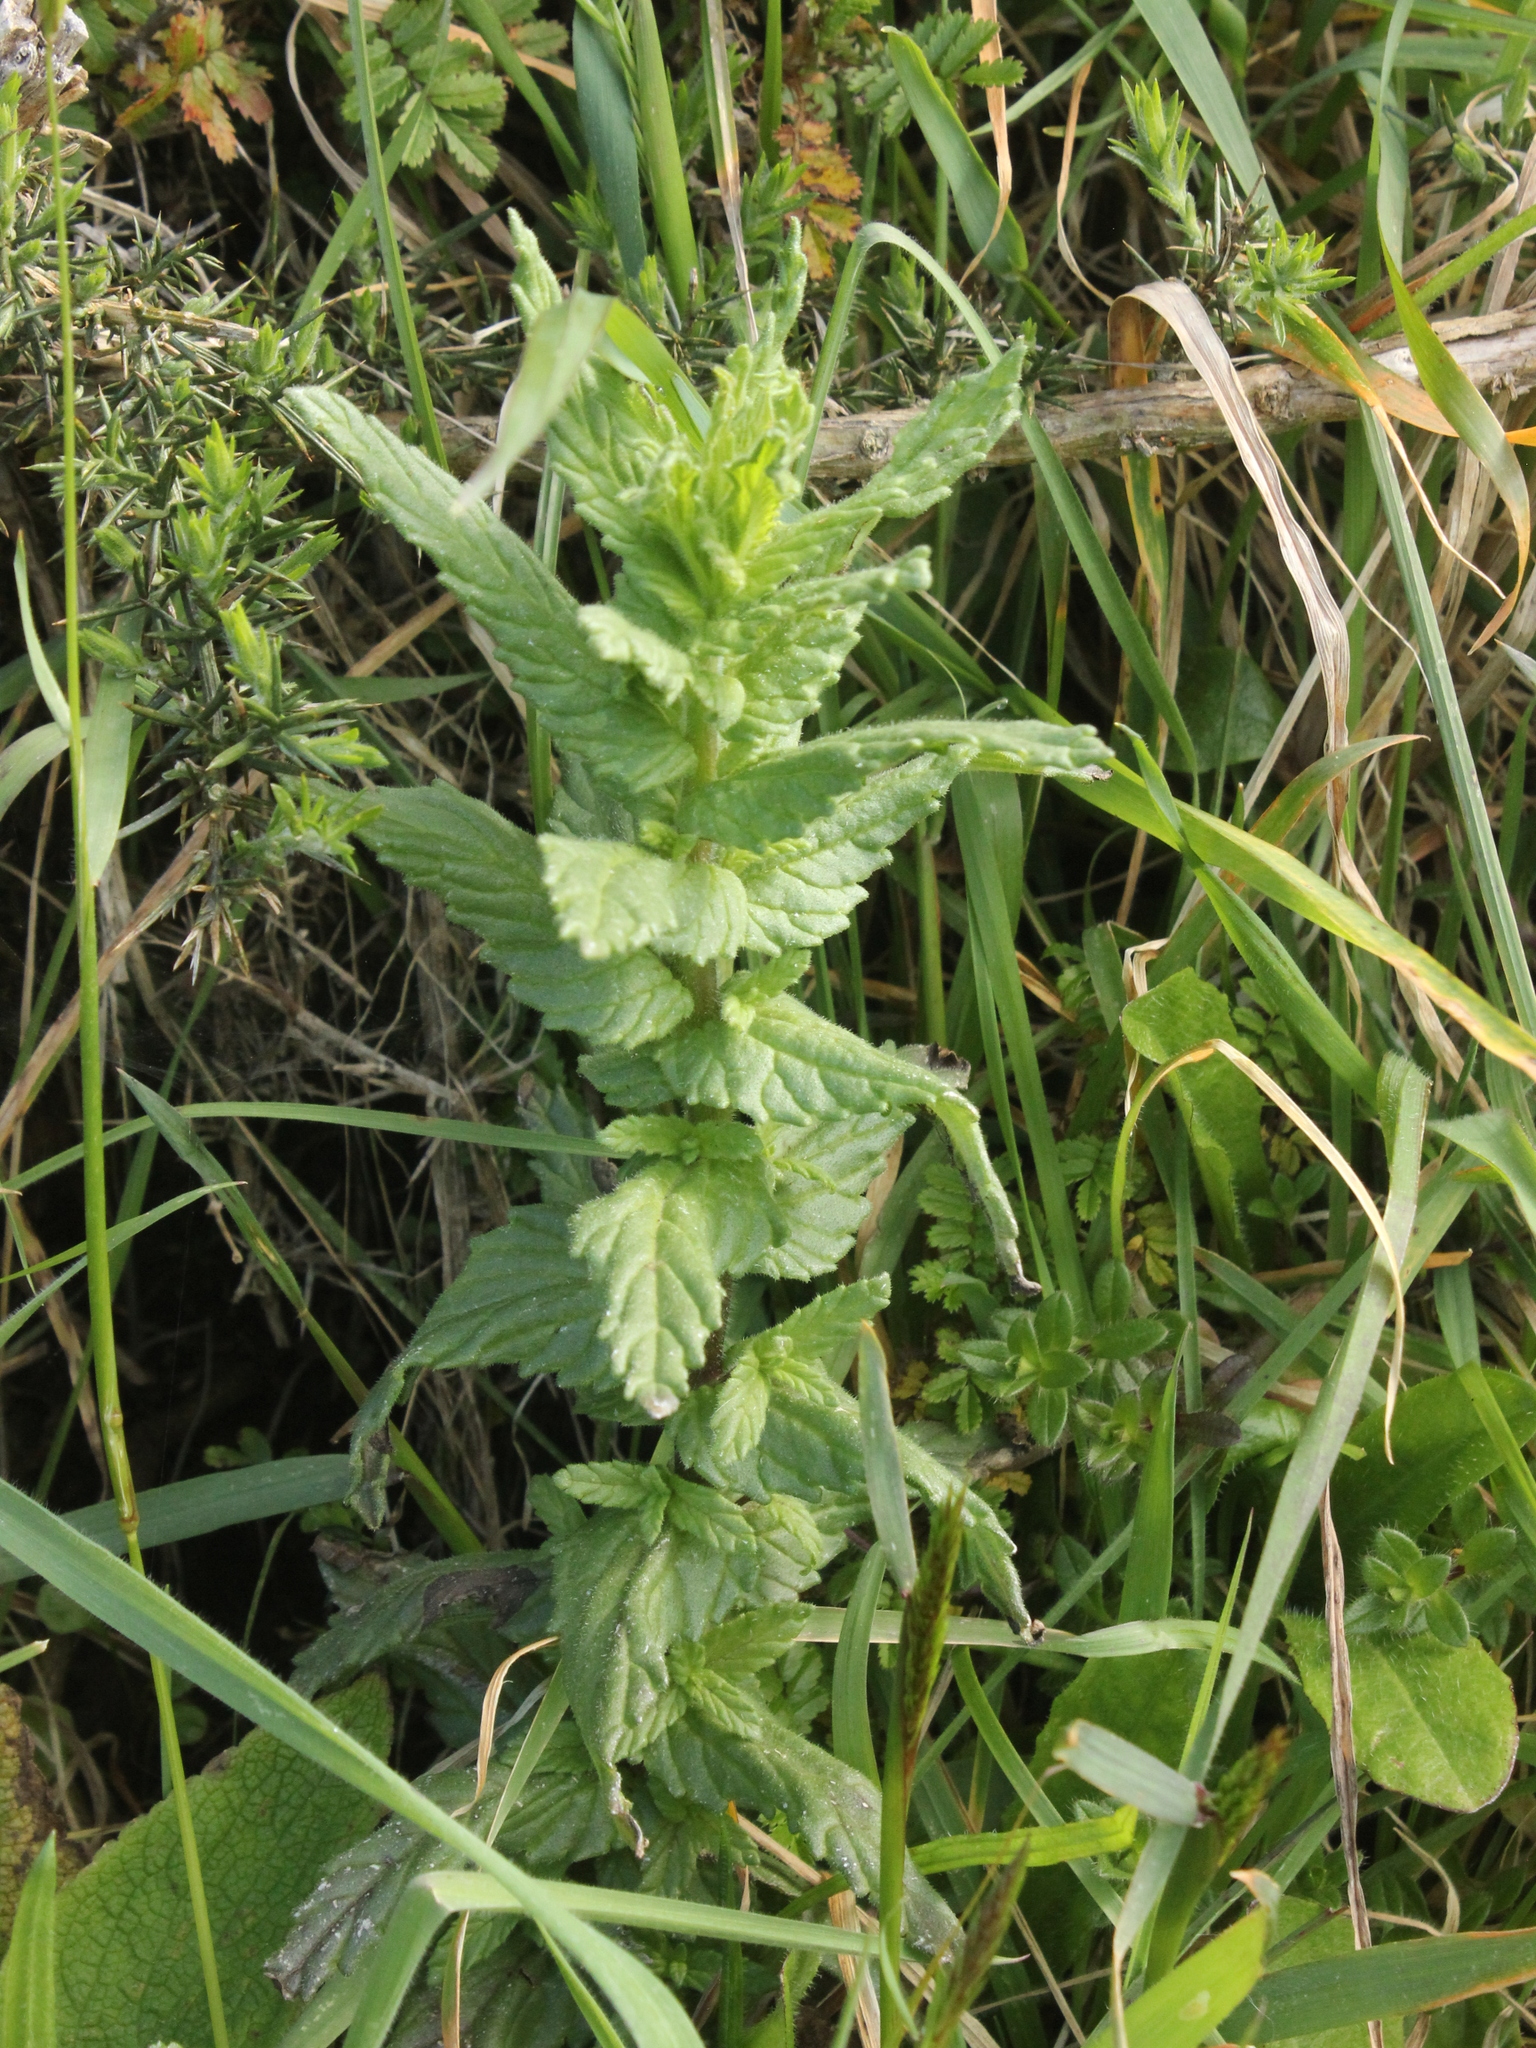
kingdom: Plantae
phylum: Tracheophyta
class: Magnoliopsida
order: Lamiales
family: Orobanchaceae
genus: Bellardia
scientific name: Bellardia viscosa
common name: Sticky parentucellia
